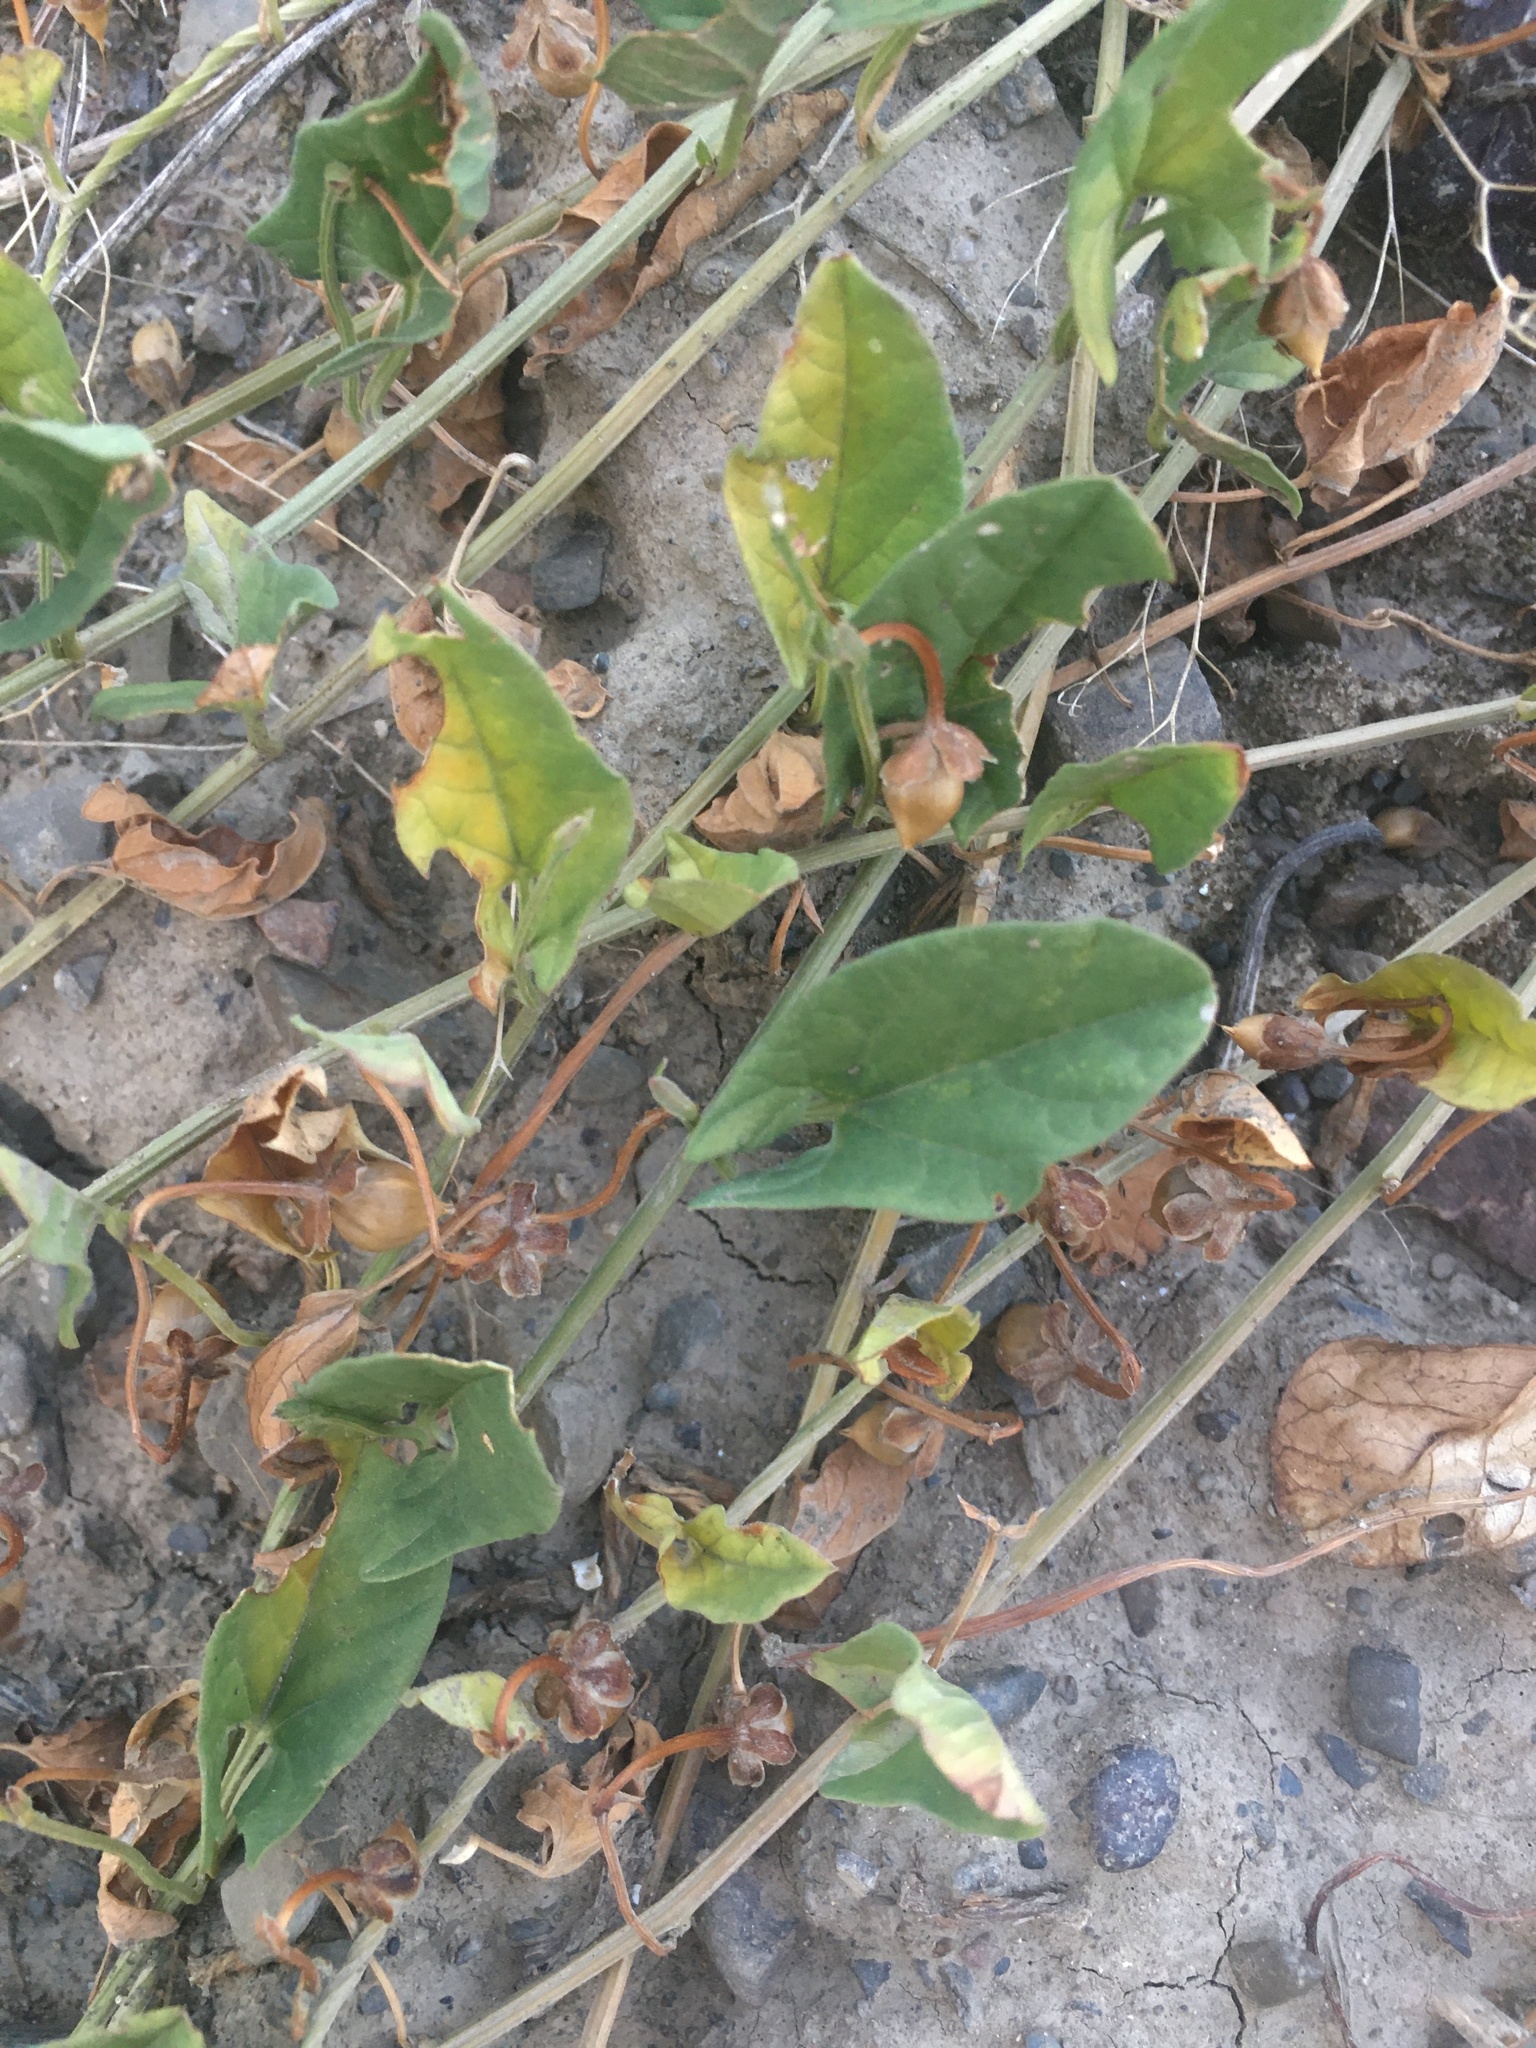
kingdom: Plantae
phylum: Tracheophyta
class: Magnoliopsida
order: Solanales
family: Convolvulaceae
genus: Convolvulus
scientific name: Convolvulus arvensis
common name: Field bindweed
